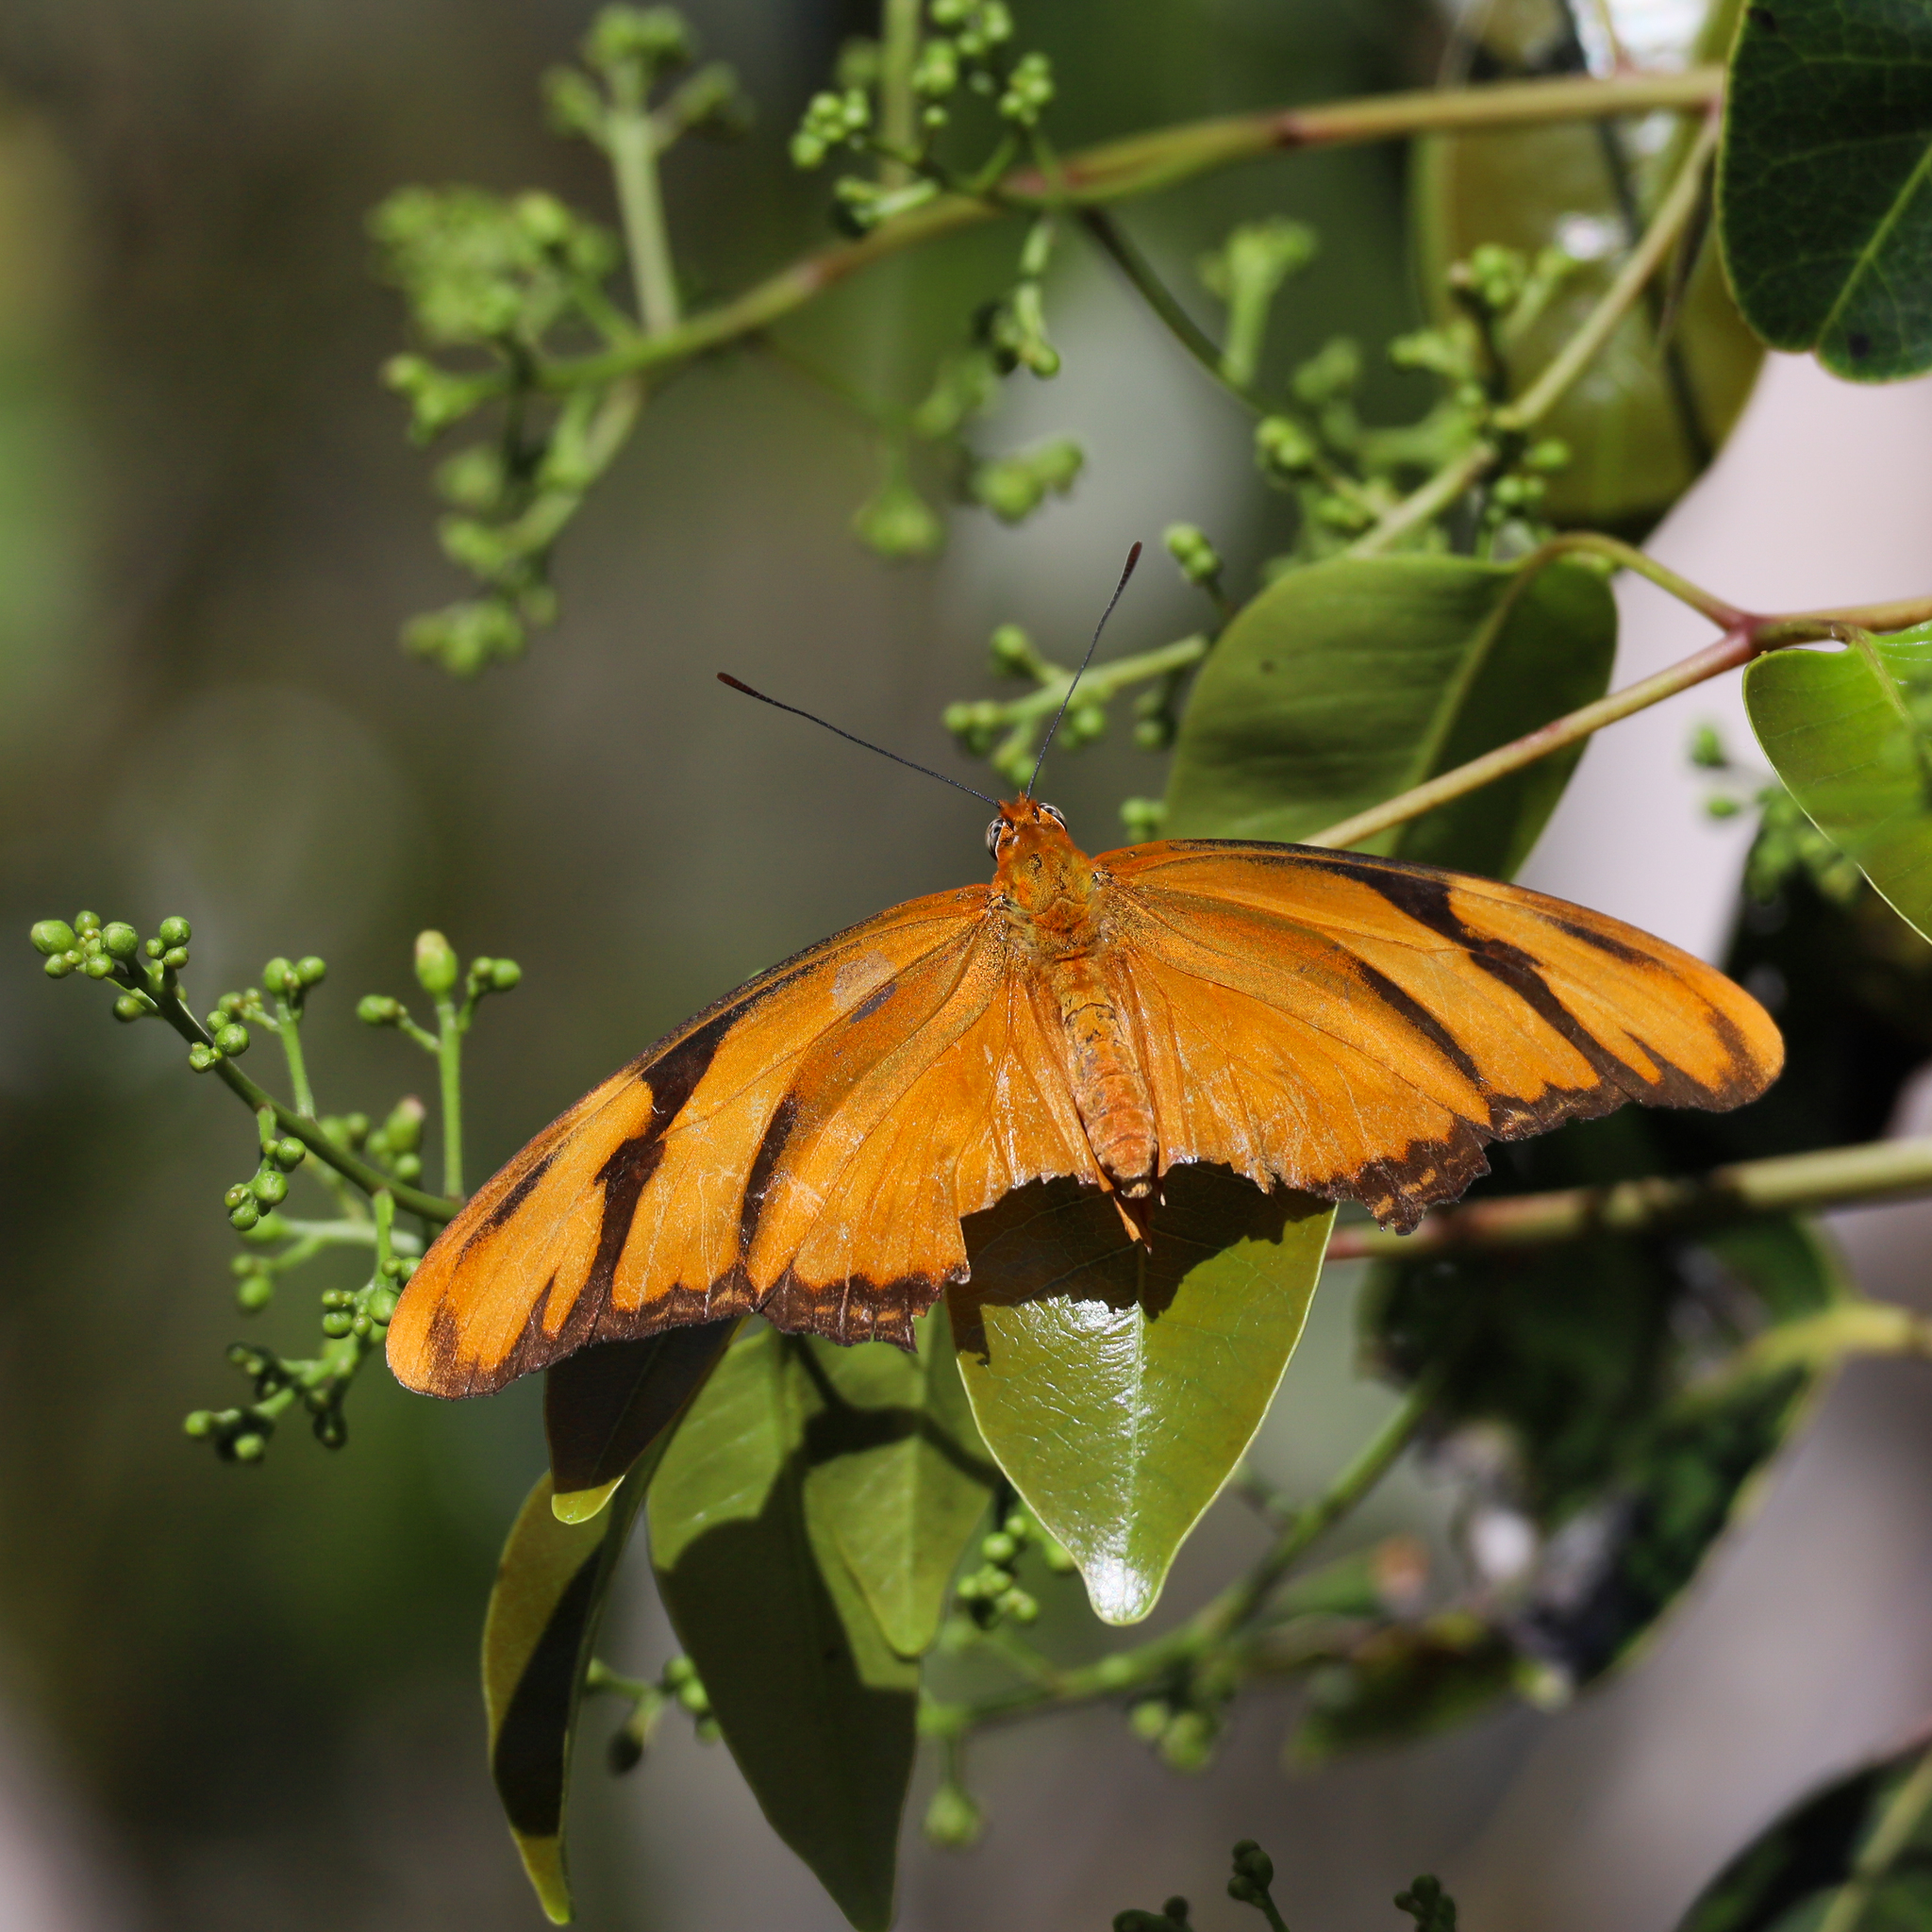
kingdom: Animalia
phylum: Arthropoda
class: Insecta
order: Lepidoptera
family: Nymphalidae
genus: Dryas
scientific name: Dryas iulia
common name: Flambeau
